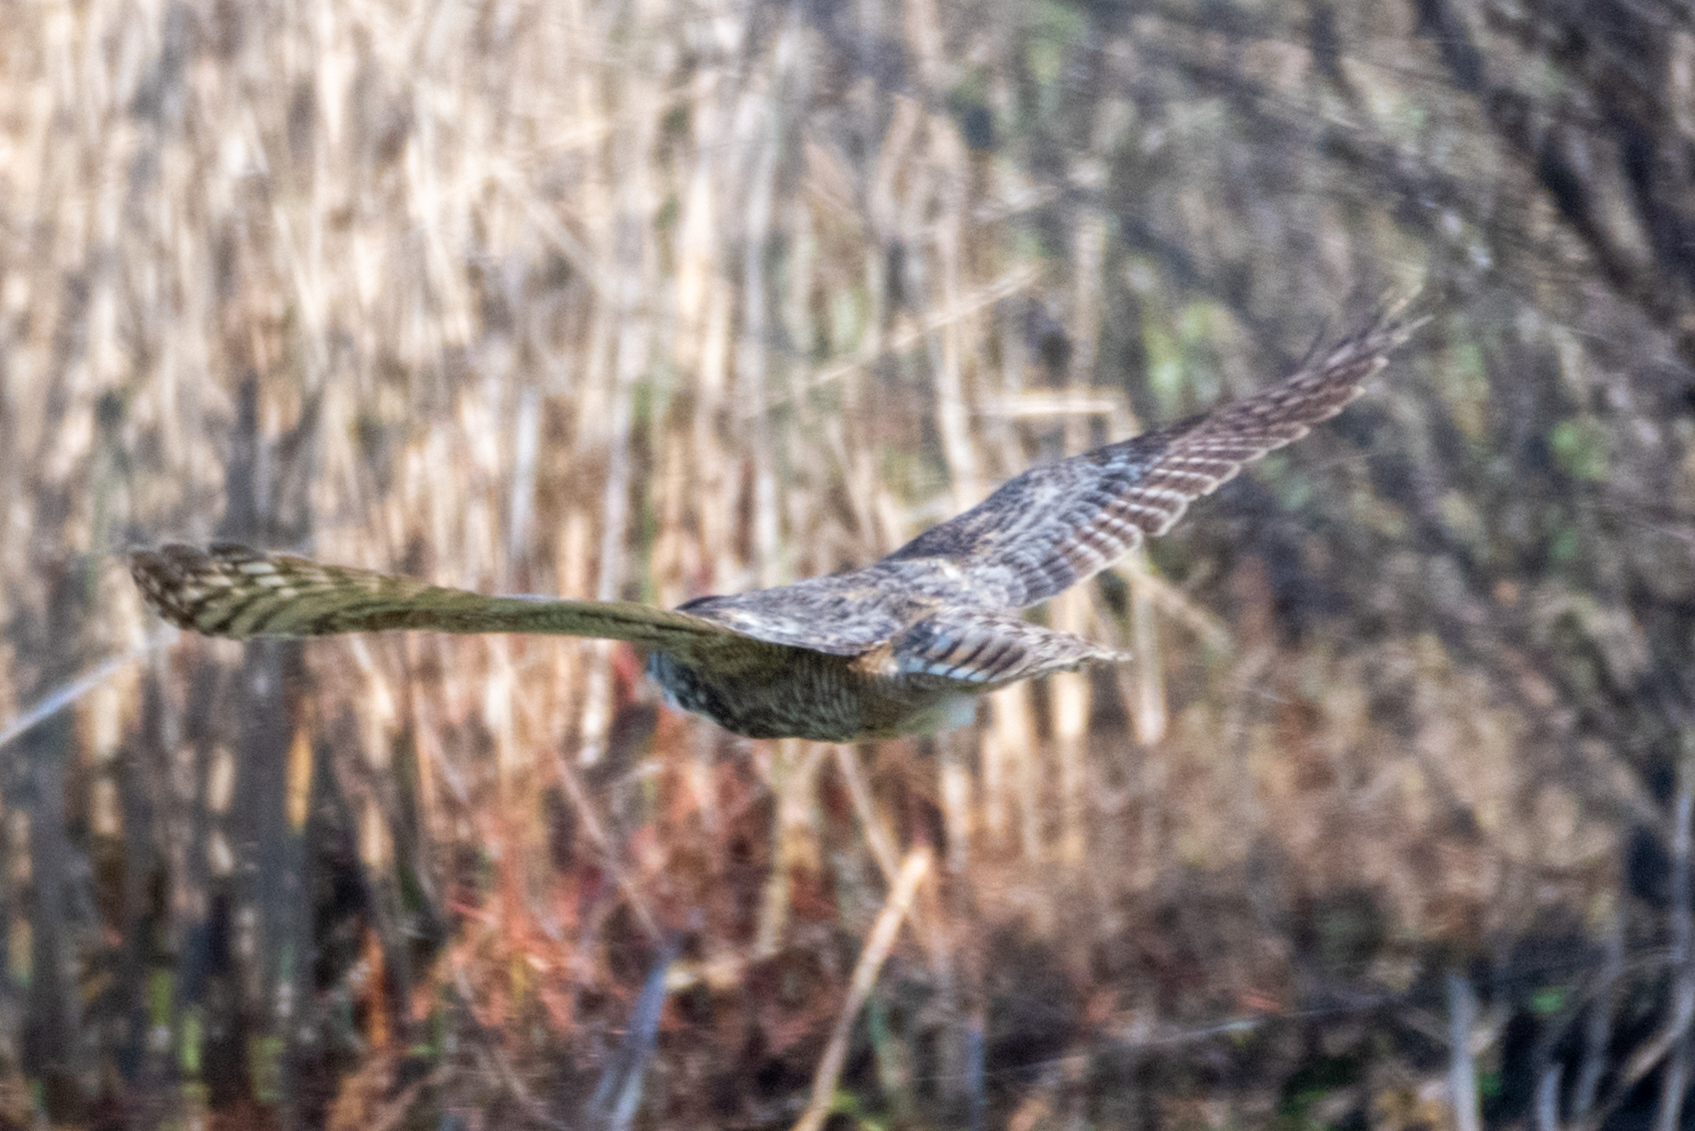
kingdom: Animalia
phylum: Chordata
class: Aves
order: Strigiformes
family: Strigidae
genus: Bubo
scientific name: Bubo virginianus
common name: Great horned owl
